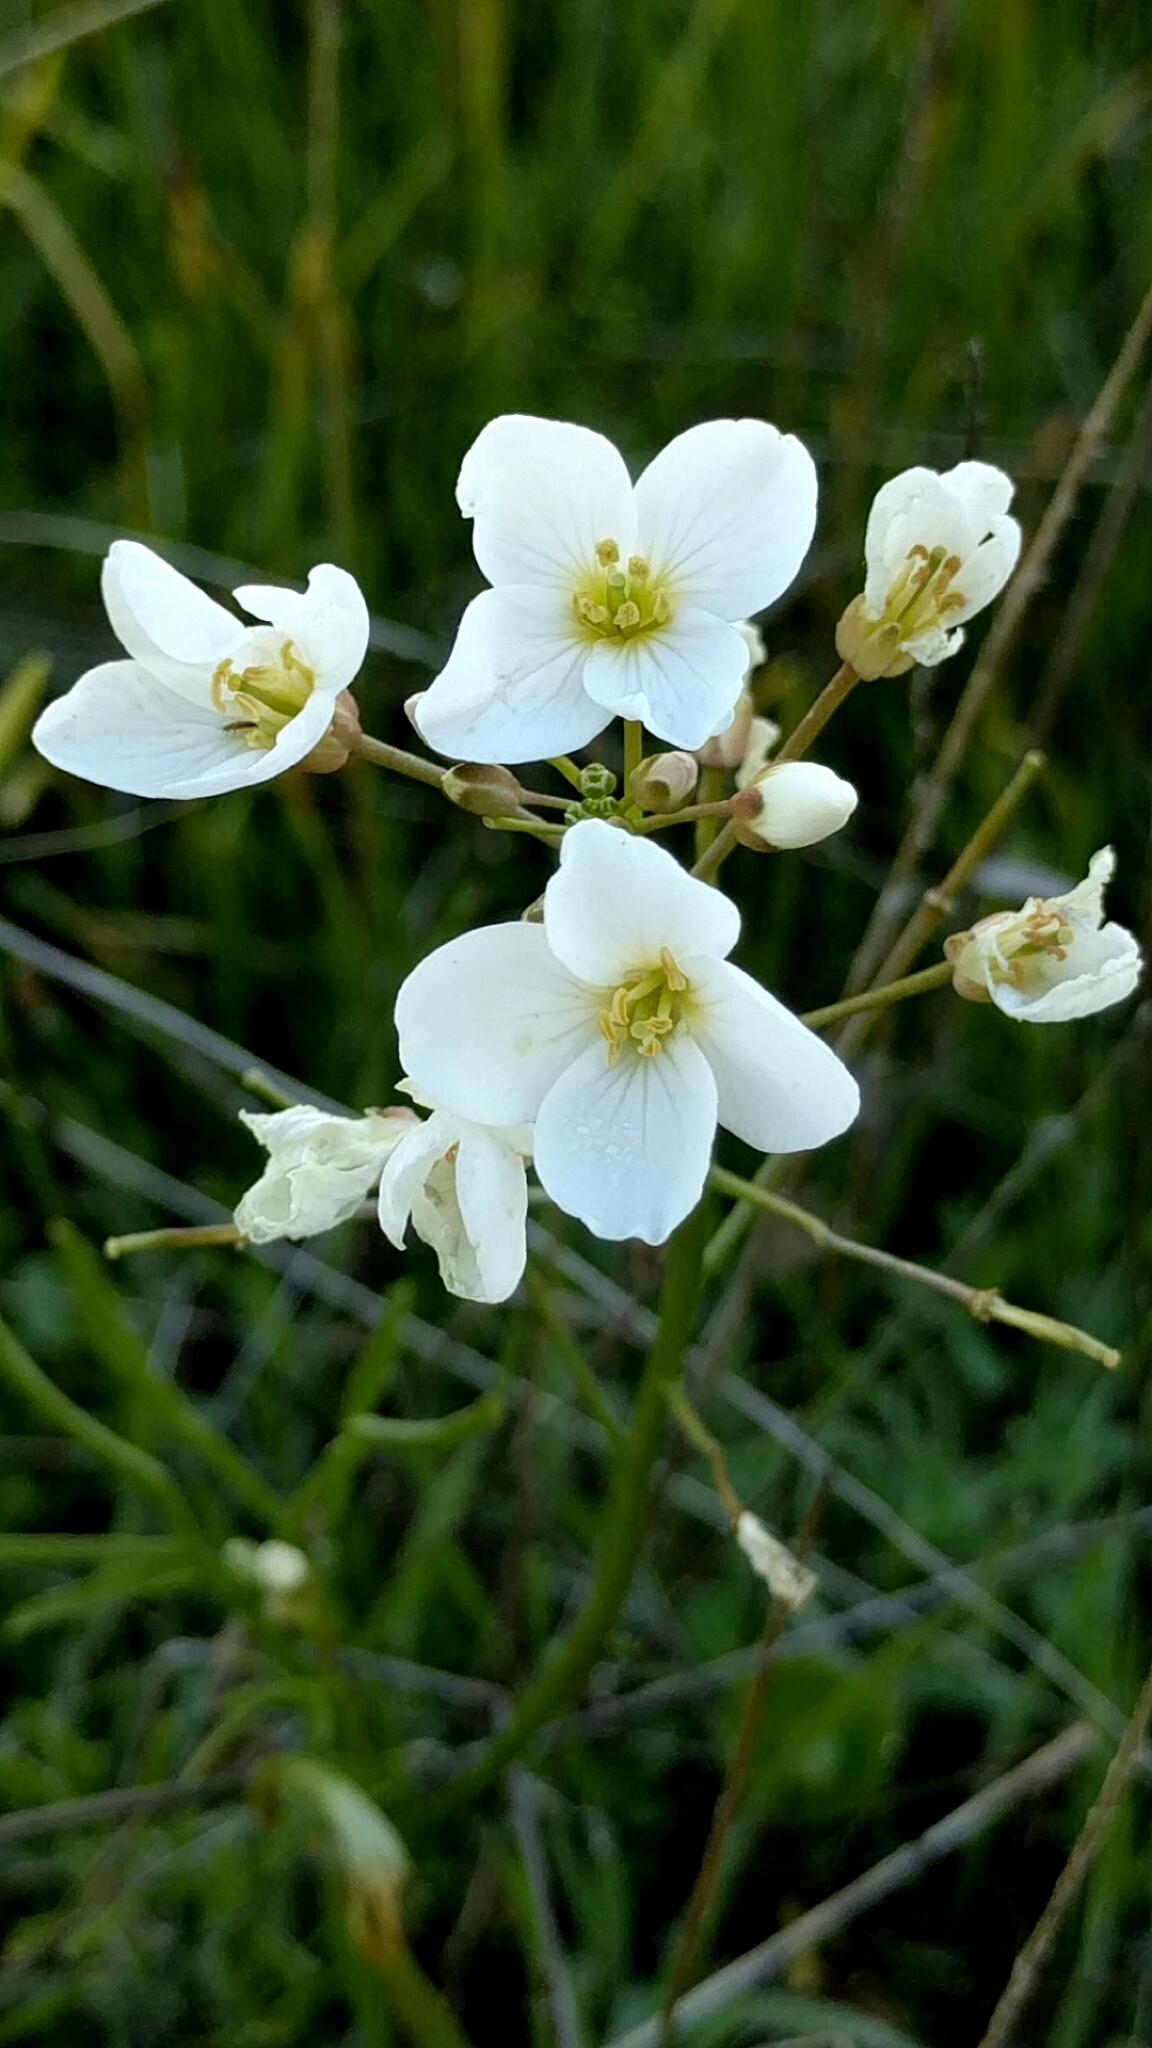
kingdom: Plantae
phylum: Tracheophyta
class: Magnoliopsida
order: Brassicales
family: Brassicaceae
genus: Cardamine
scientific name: Cardamine californica
